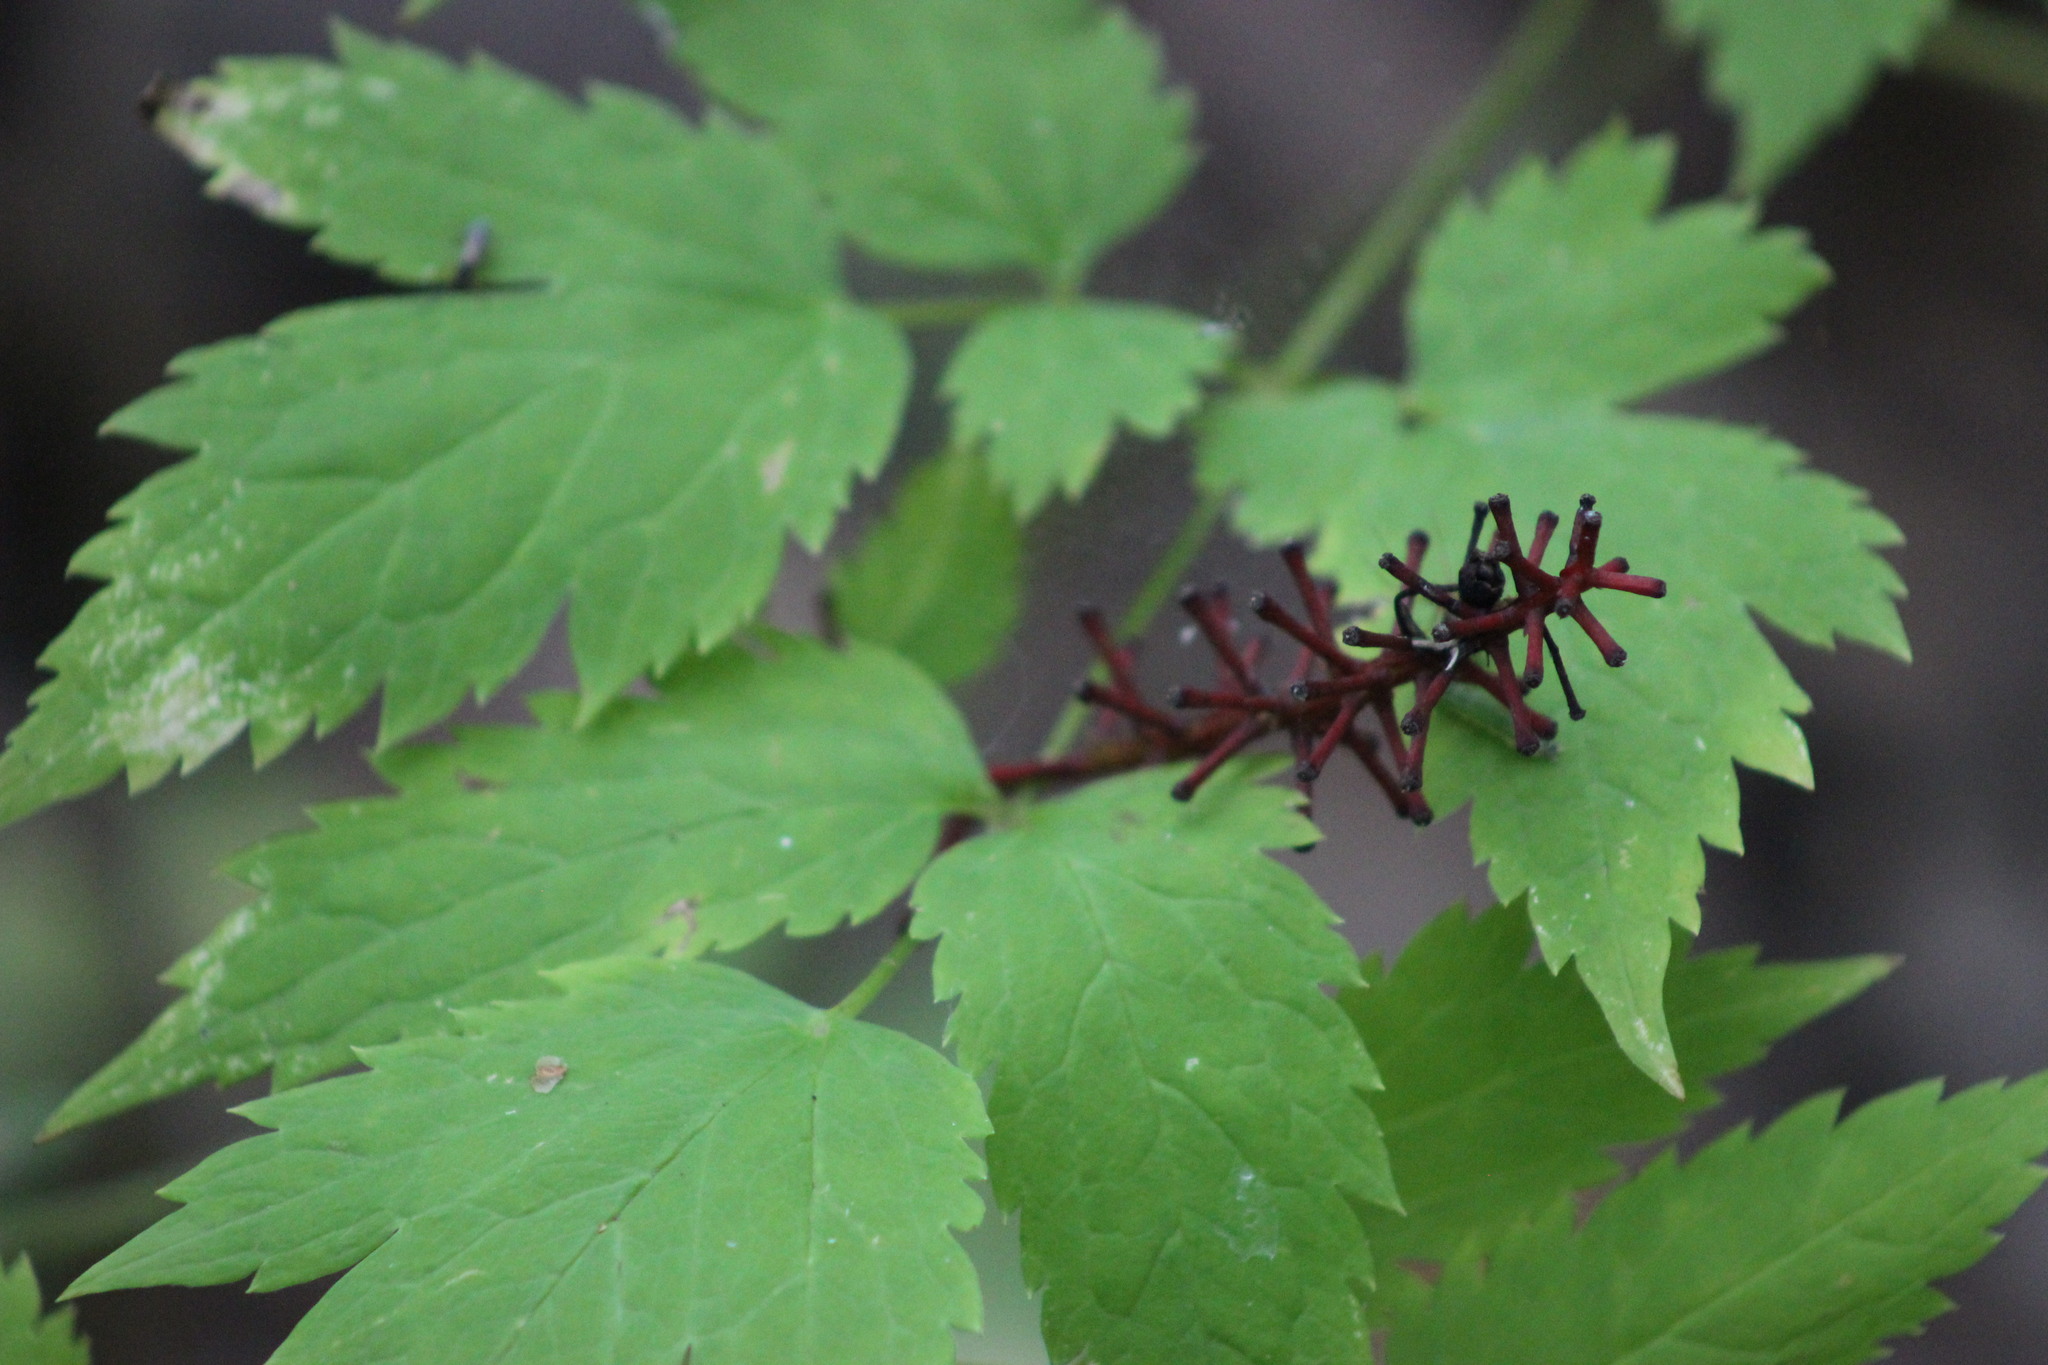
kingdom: Plantae
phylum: Tracheophyta
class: Magnoliopsida
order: Ranunculales
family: Ranunculaceae
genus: Actaea
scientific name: Actaea erythrocarpa
